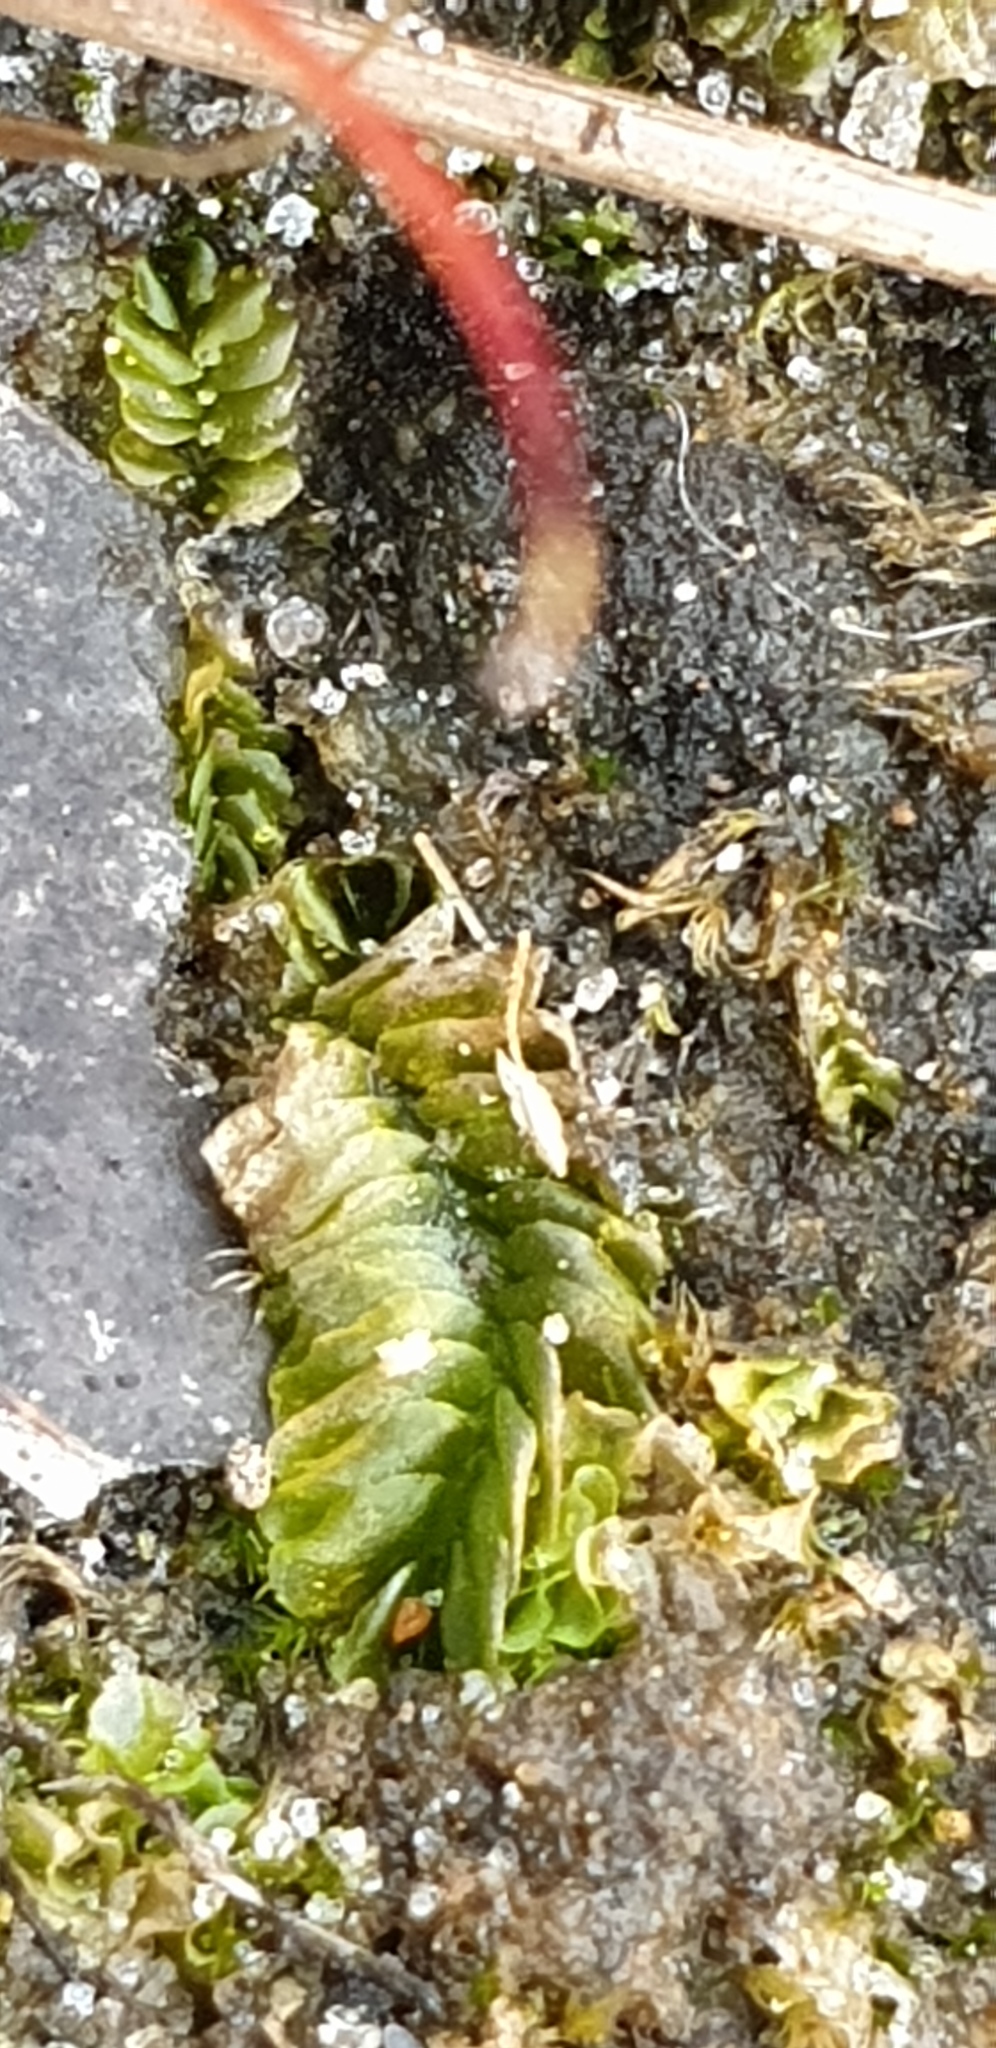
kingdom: Plantae
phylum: Marchantiophyta
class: Jungermanniopsida
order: Jungermanniales
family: Acrobolbaceae
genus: Lethocolea
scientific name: Lethocolea pansa
